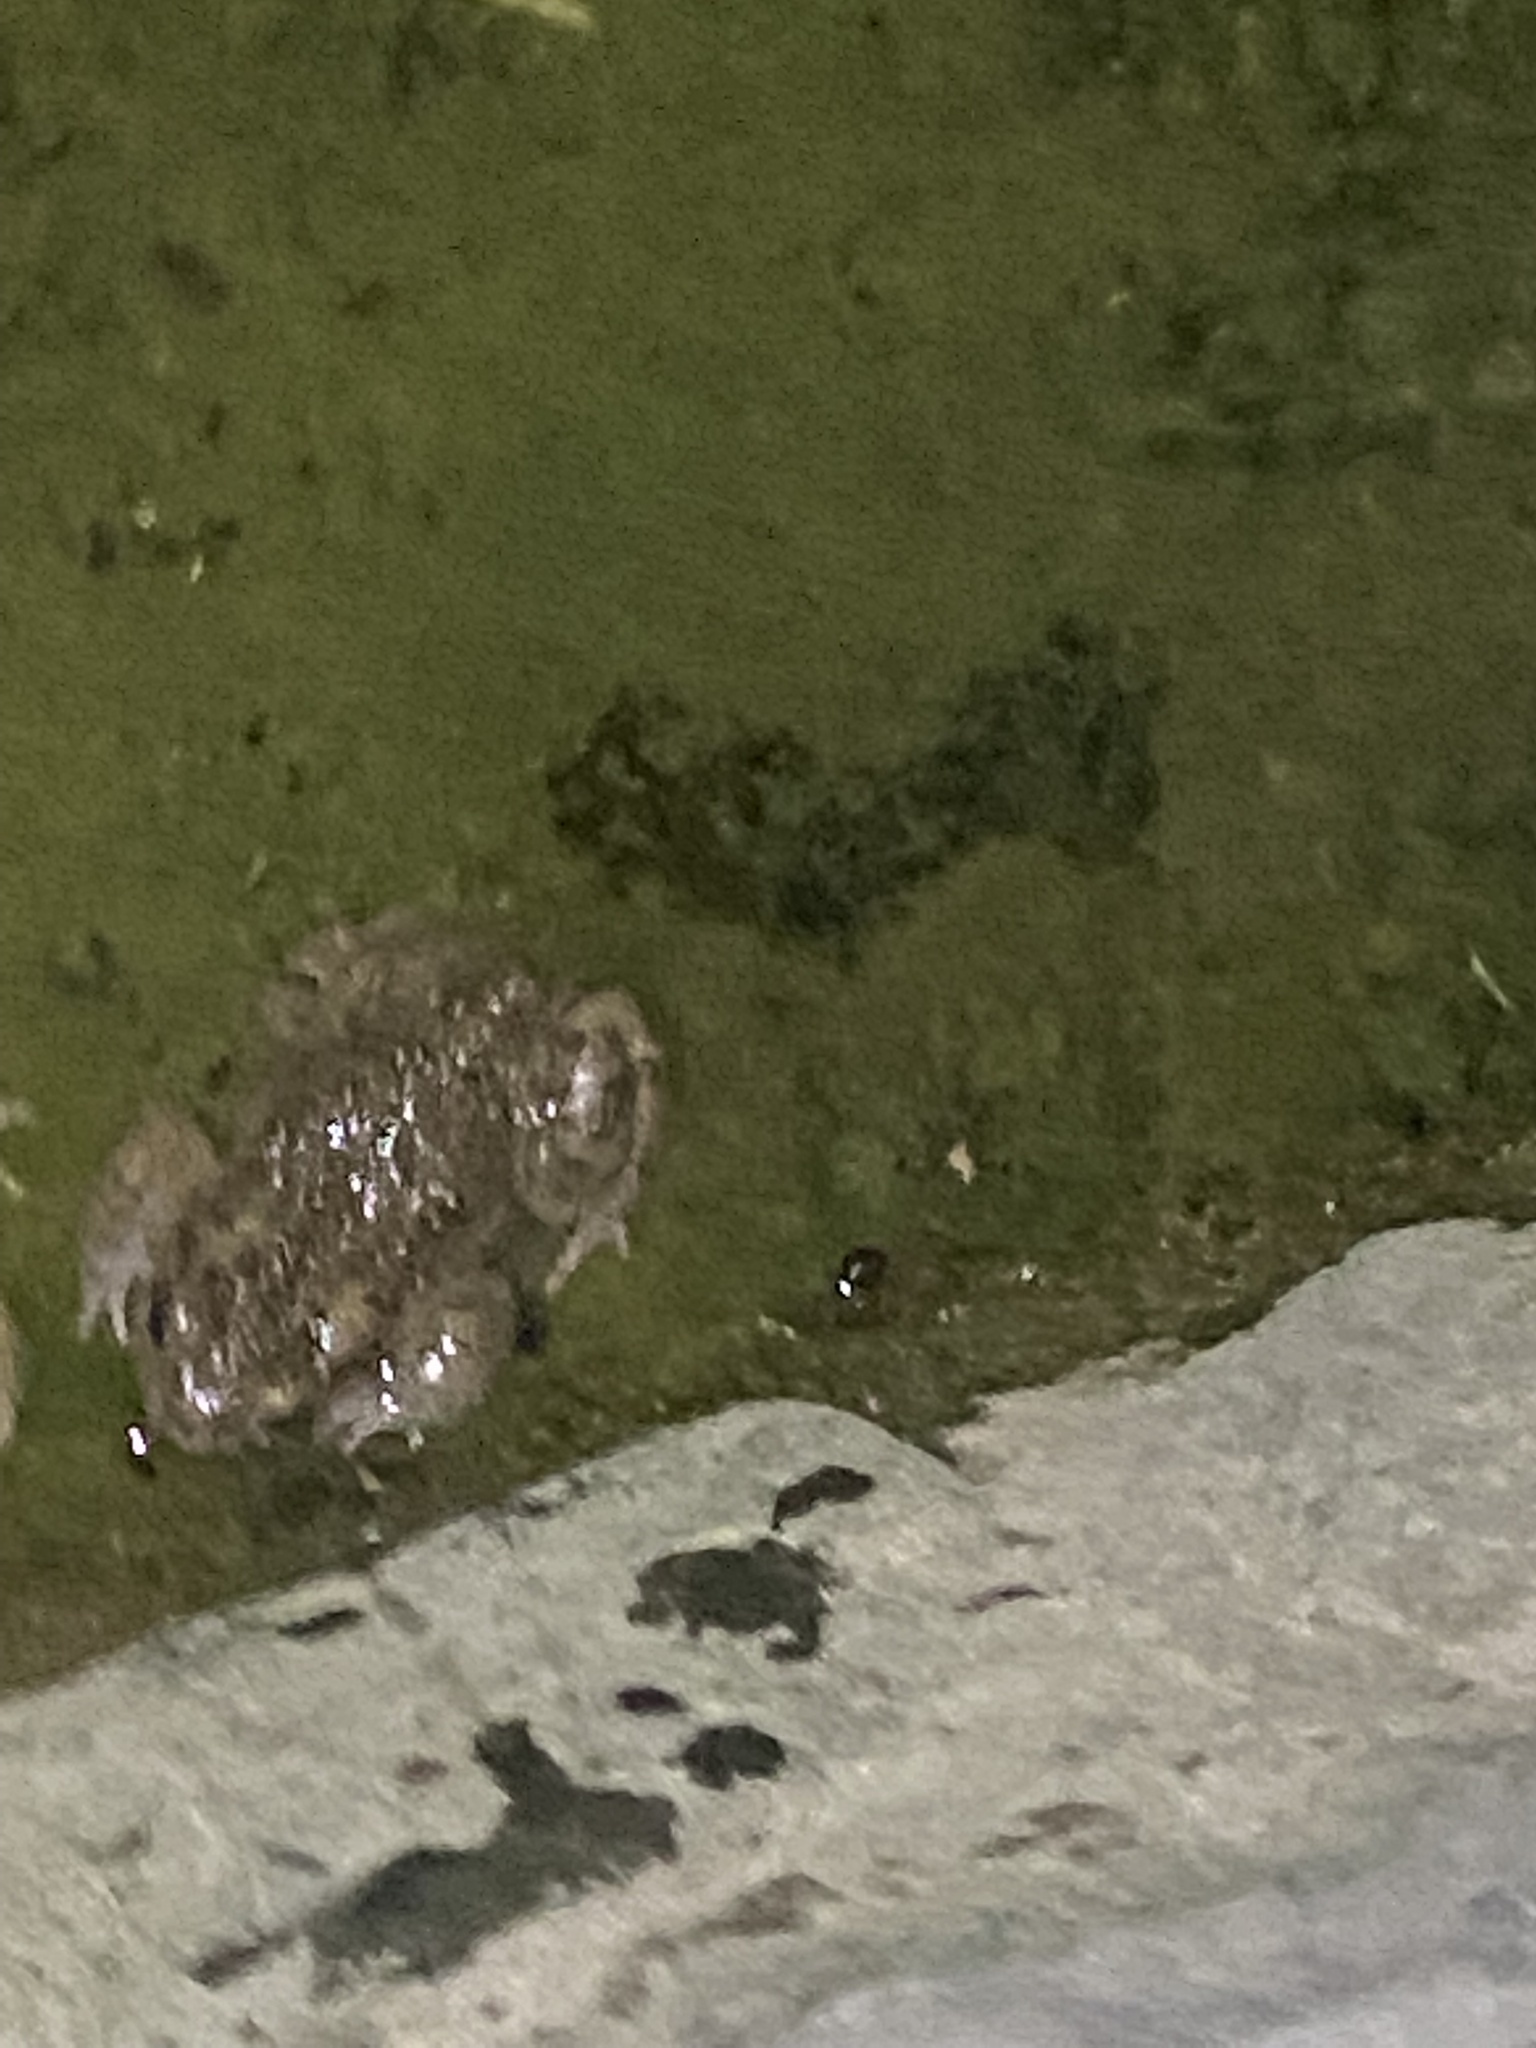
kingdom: Animalia
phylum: Chordata
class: Amphibia
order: Anura
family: Bufonidae
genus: Bufotes
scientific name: Bufotes viridis
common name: European green toad
